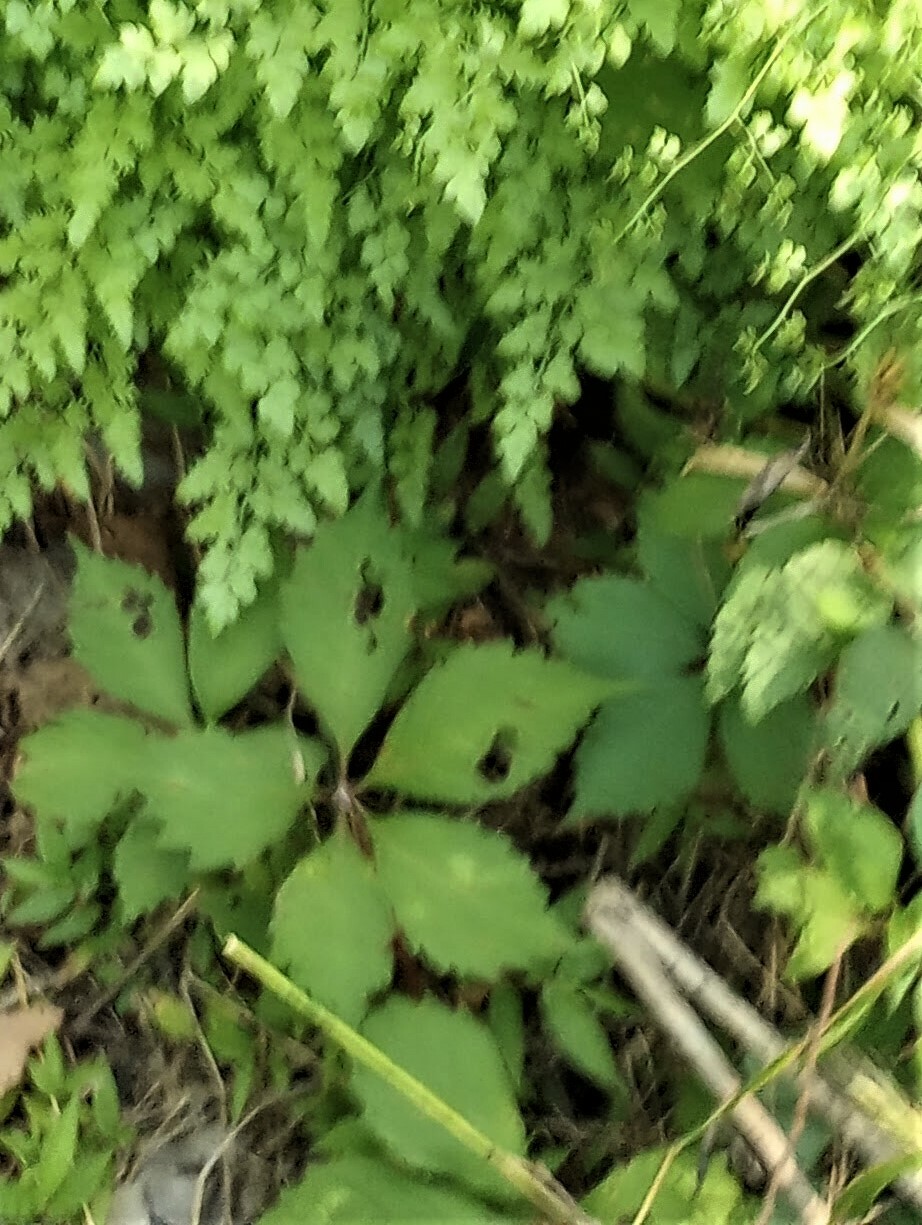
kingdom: Plantae
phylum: Tracheophyta
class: Magnoliopsida
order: Vitales
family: Vitaceae
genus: Parthenocissus
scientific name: Parthenocissus quinquefolia
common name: Virginia-creeper
